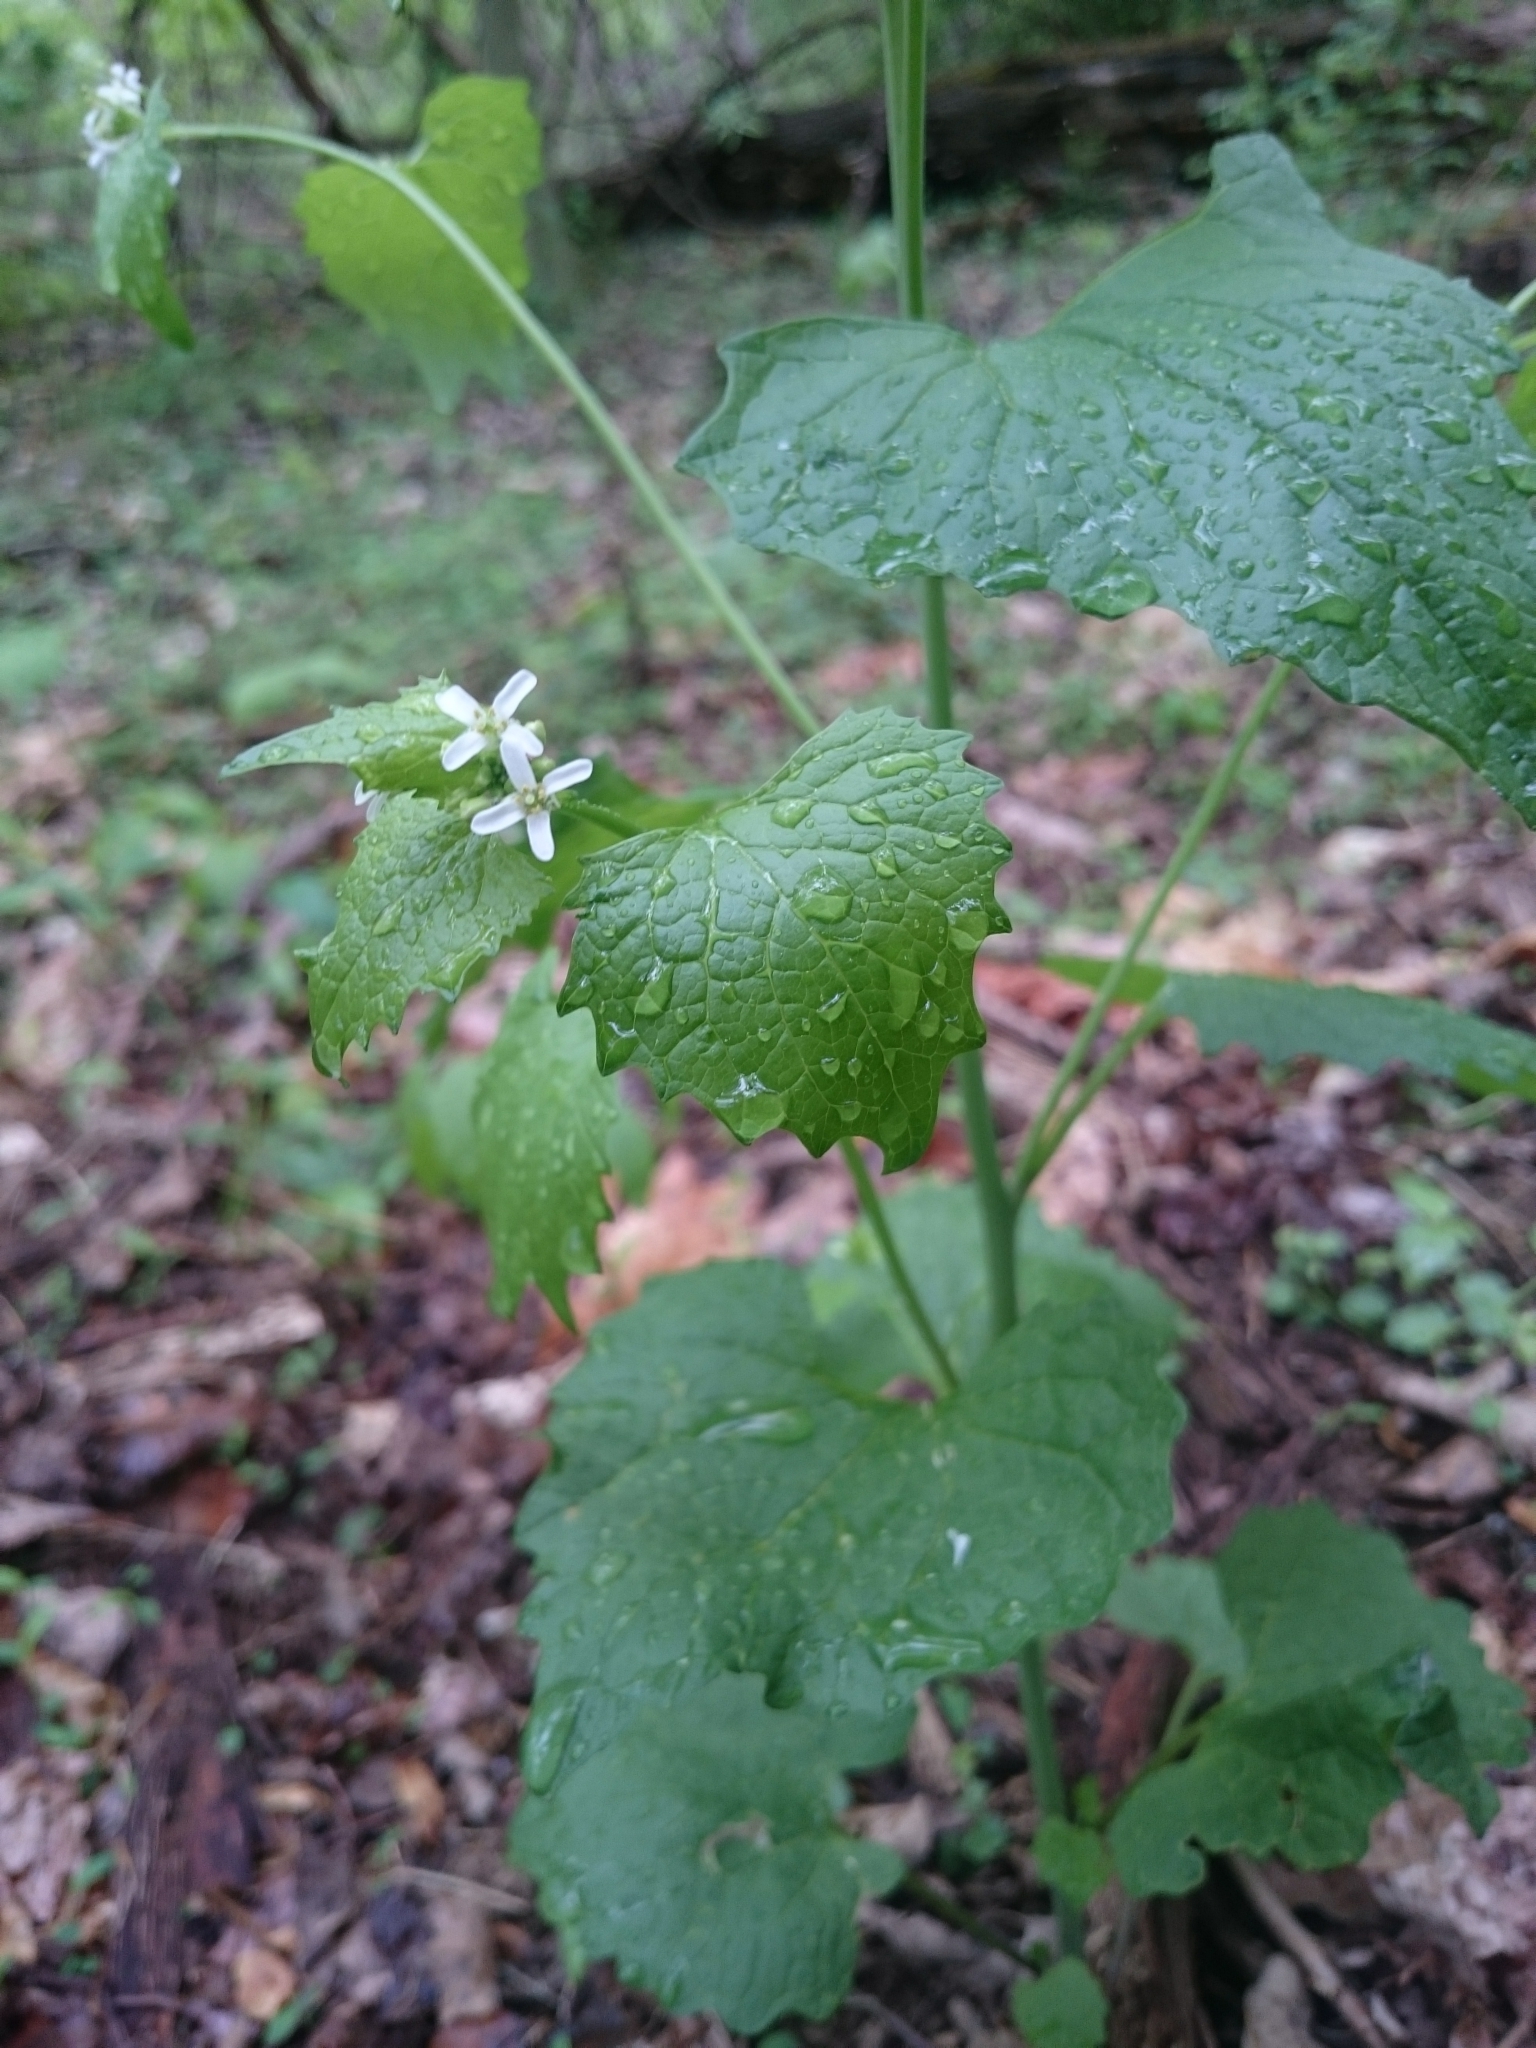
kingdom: Plantae
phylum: Tracheophyta
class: Magnoliopsida
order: Brassicales
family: Brassicaceae
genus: Alliaria
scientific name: Alliaria petiolata
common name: Garlic mustard
